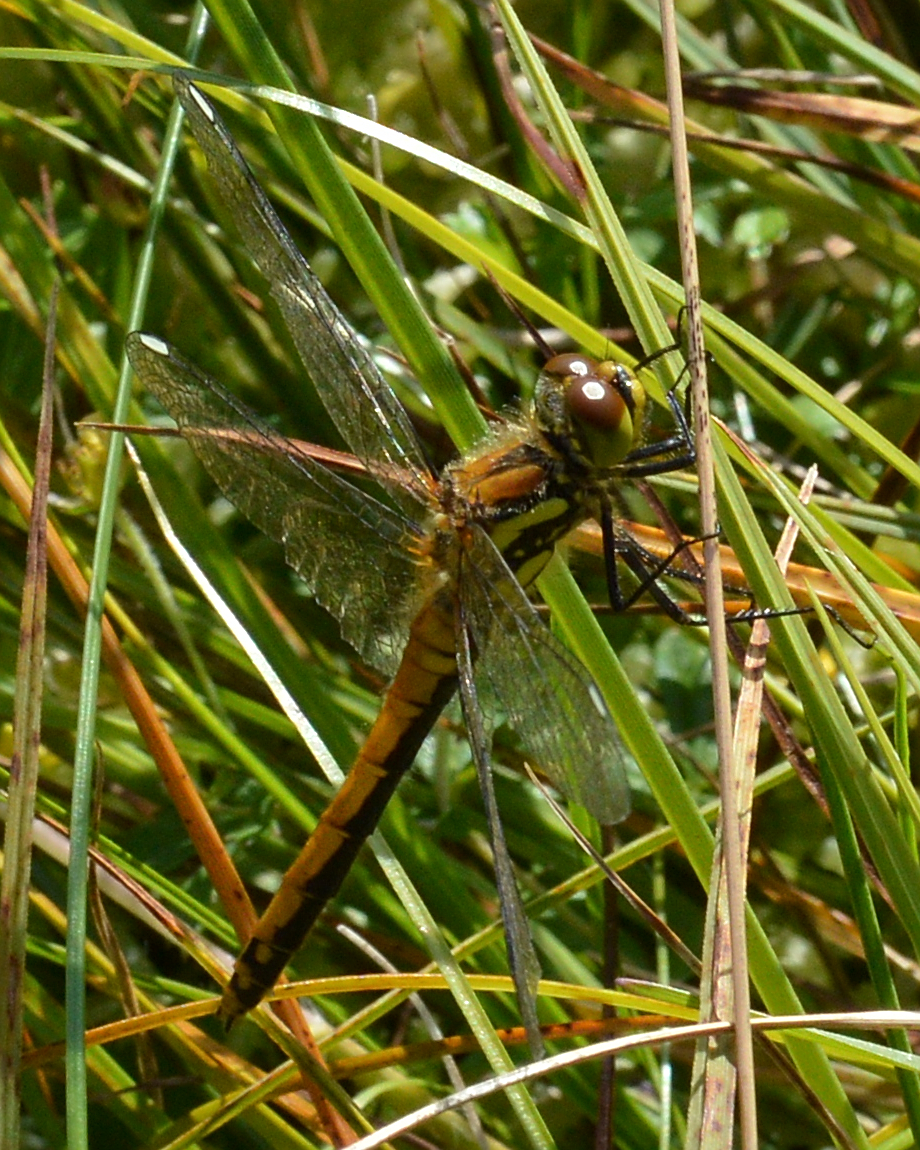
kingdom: Animalia
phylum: Arthropoda
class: Insecta
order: Odonata
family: Libellulidae
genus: Sympetrum
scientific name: Sympetrum danae
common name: Black darter
